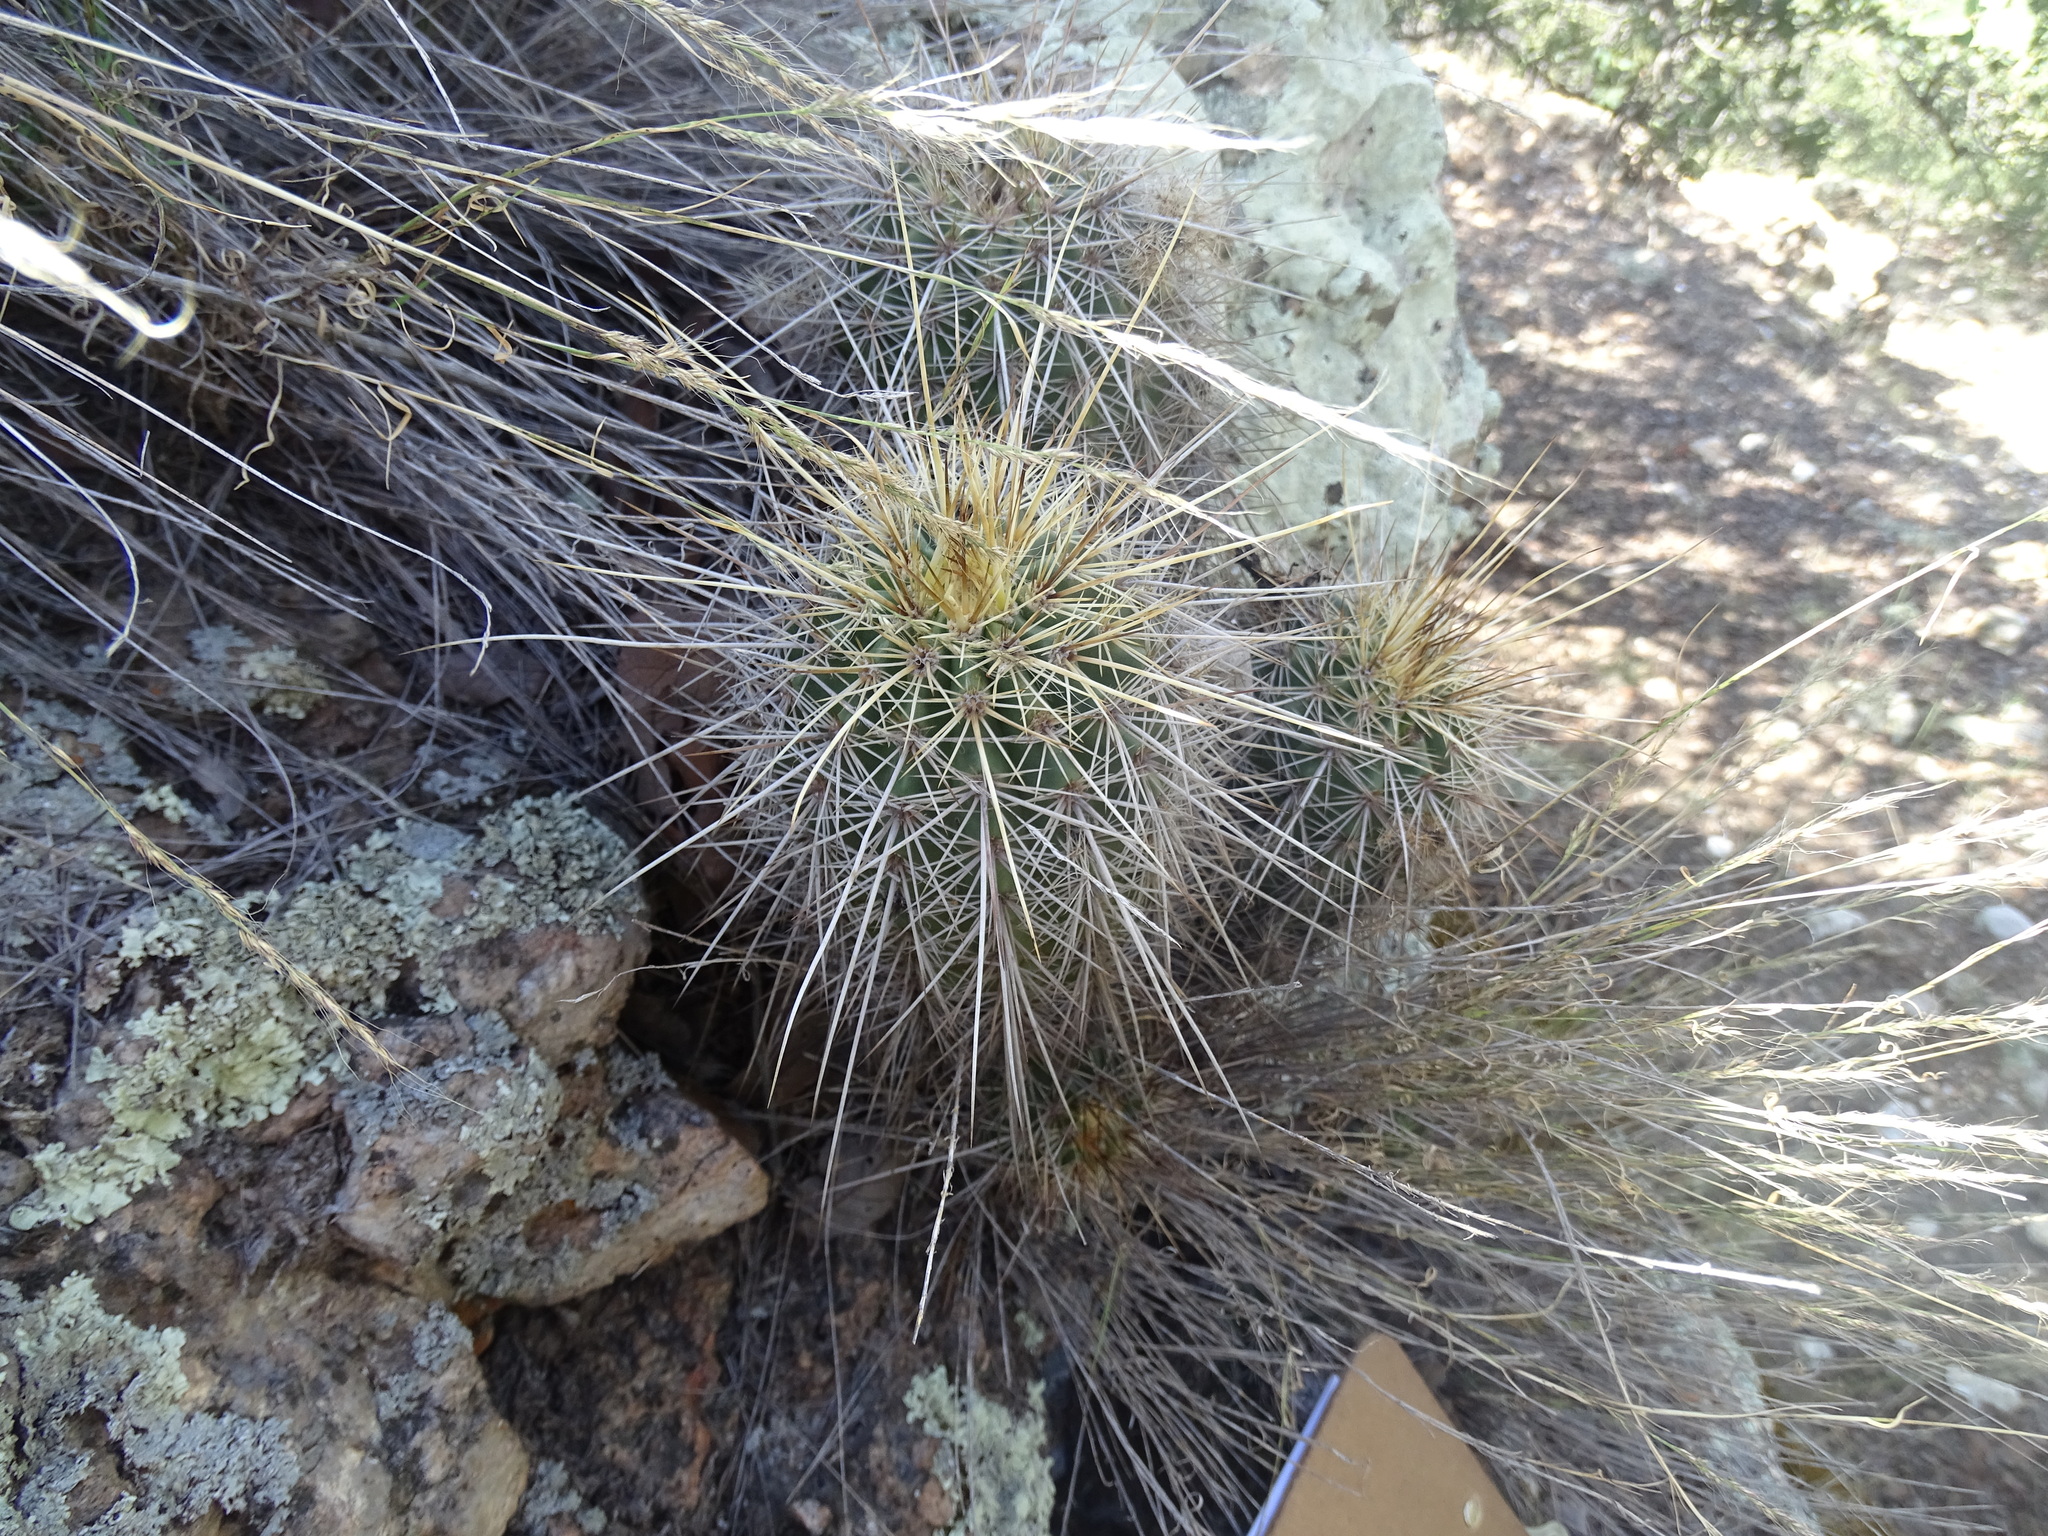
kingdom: Plantae
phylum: Tracheophyta
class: Magnoliopsida
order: Caryophyllales
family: Cactaceae
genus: Echinocereus
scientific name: Echinocereus acifer
